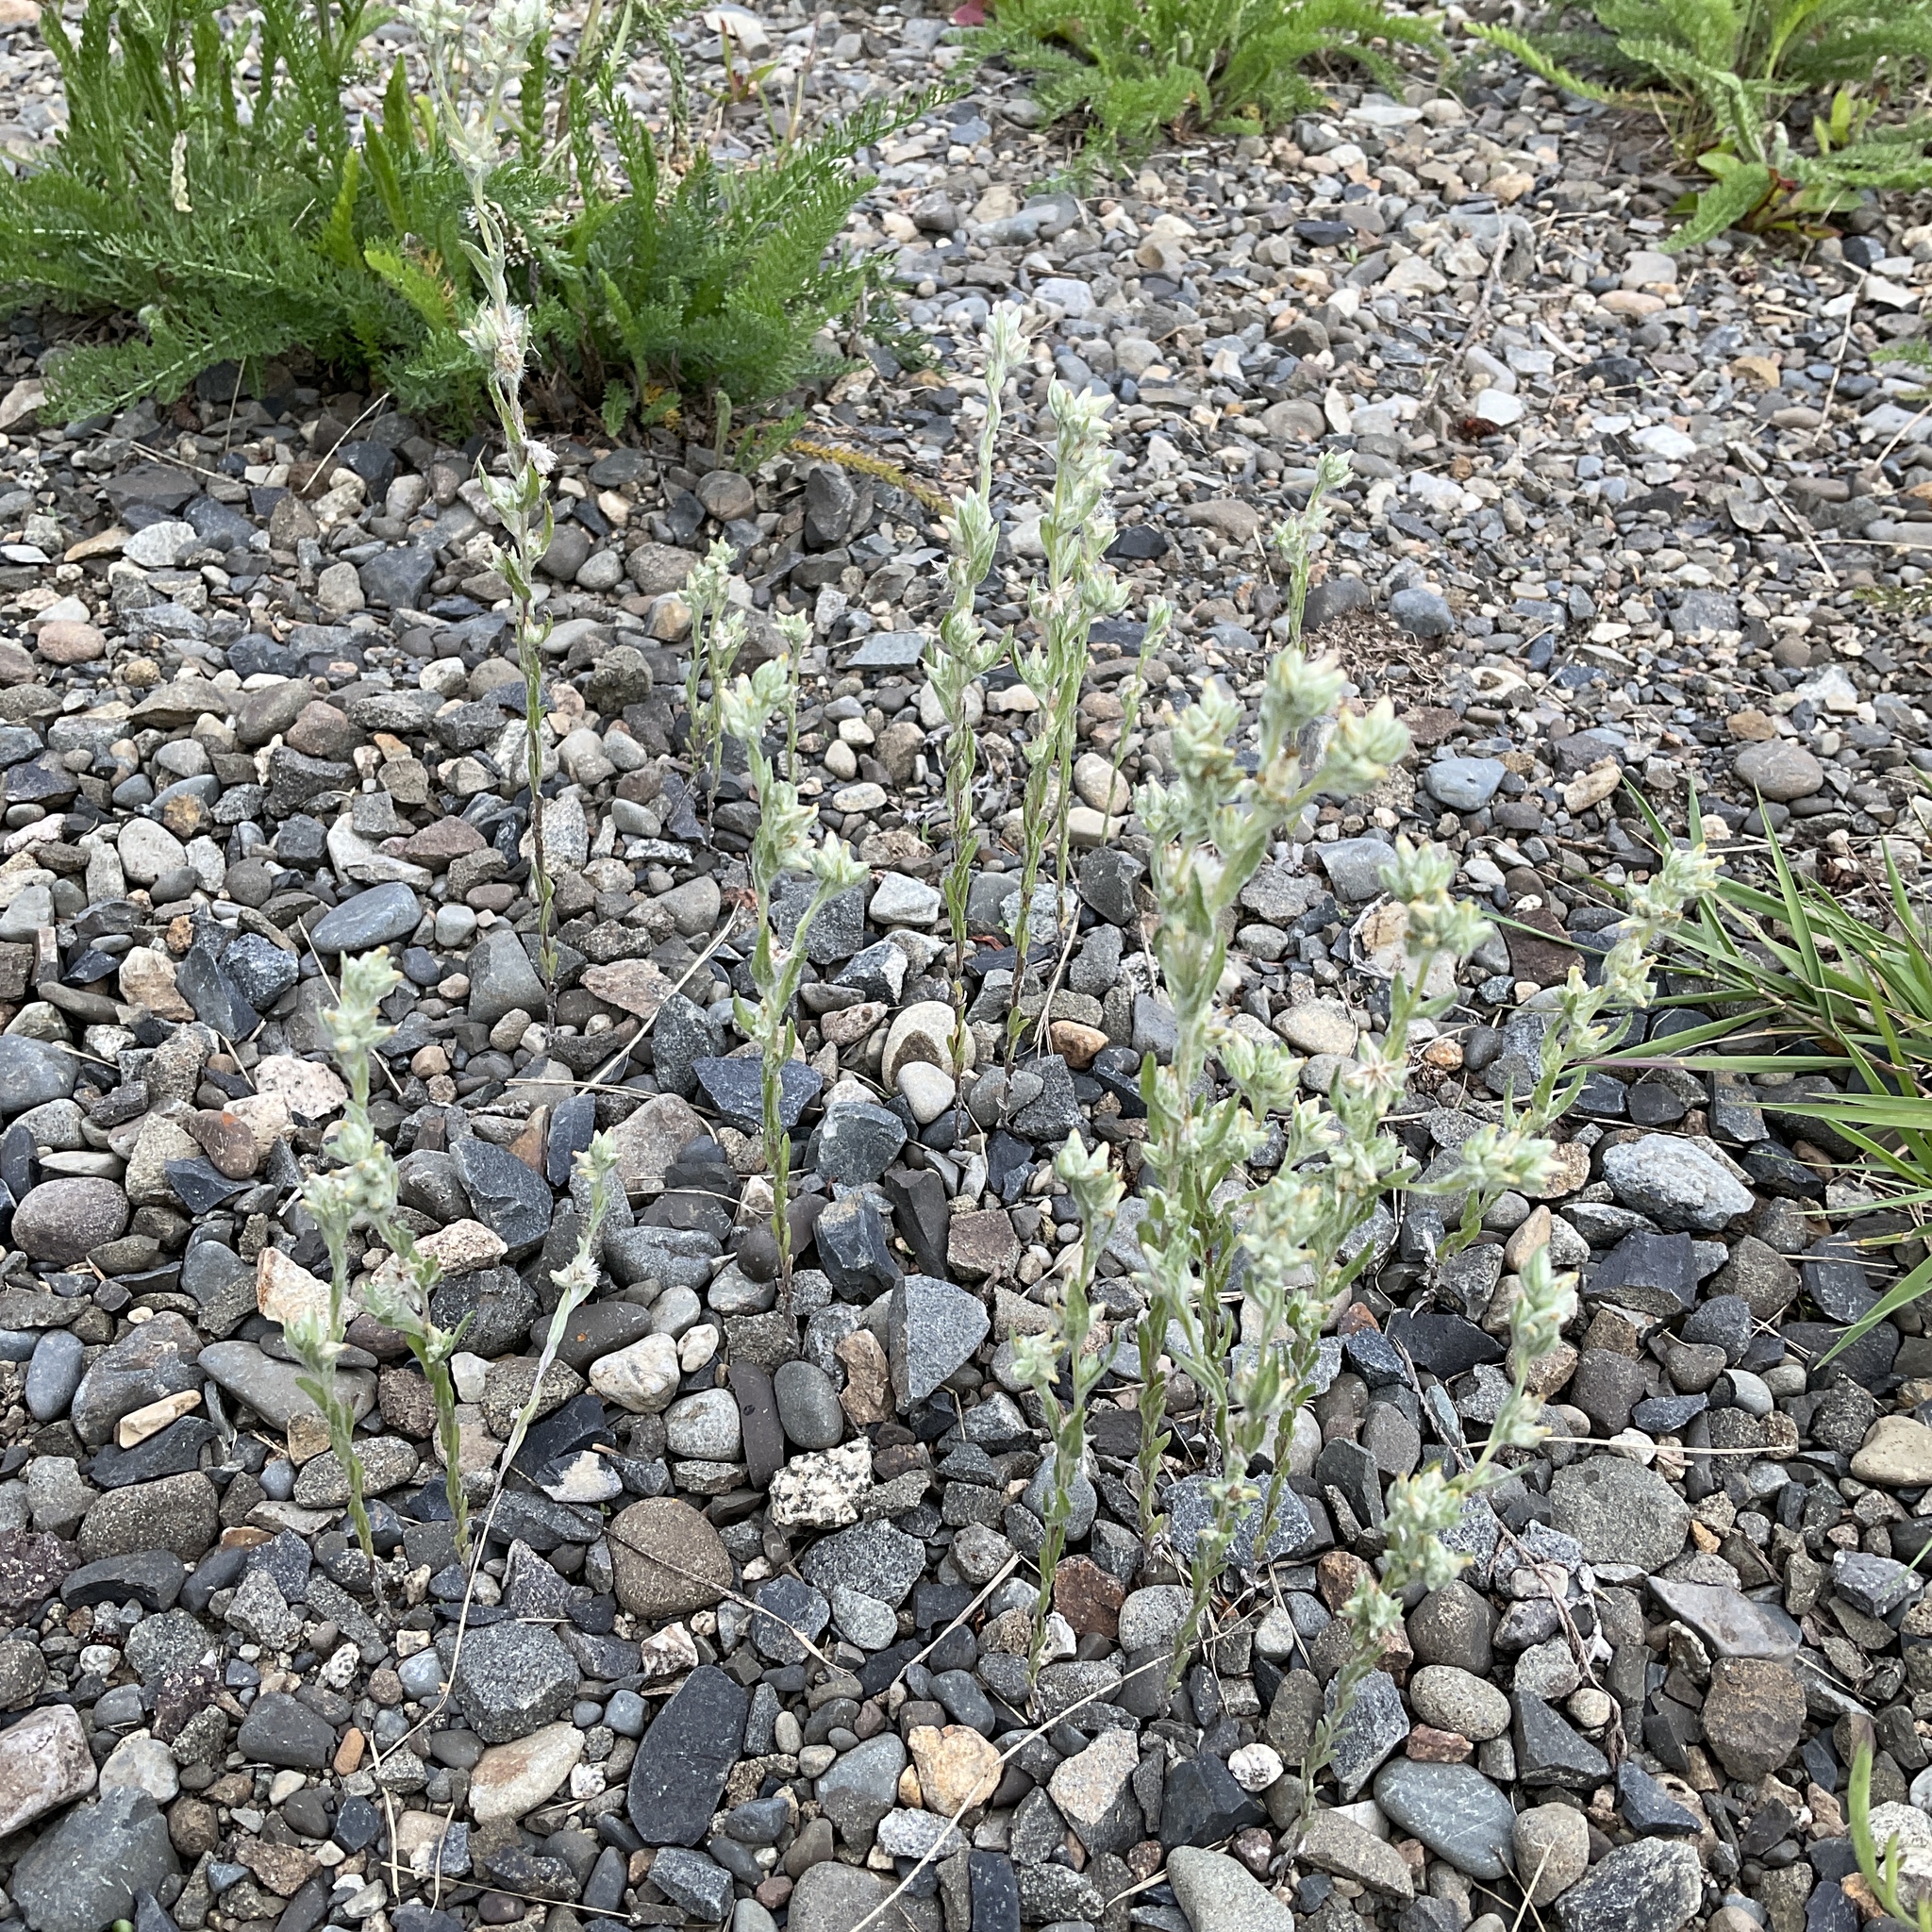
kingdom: Plantae
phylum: Tracheophyta
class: Magnoliopsida
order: Asterales
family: Asteraceae
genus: Filago
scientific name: Filago arvensis
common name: Field cudweed
